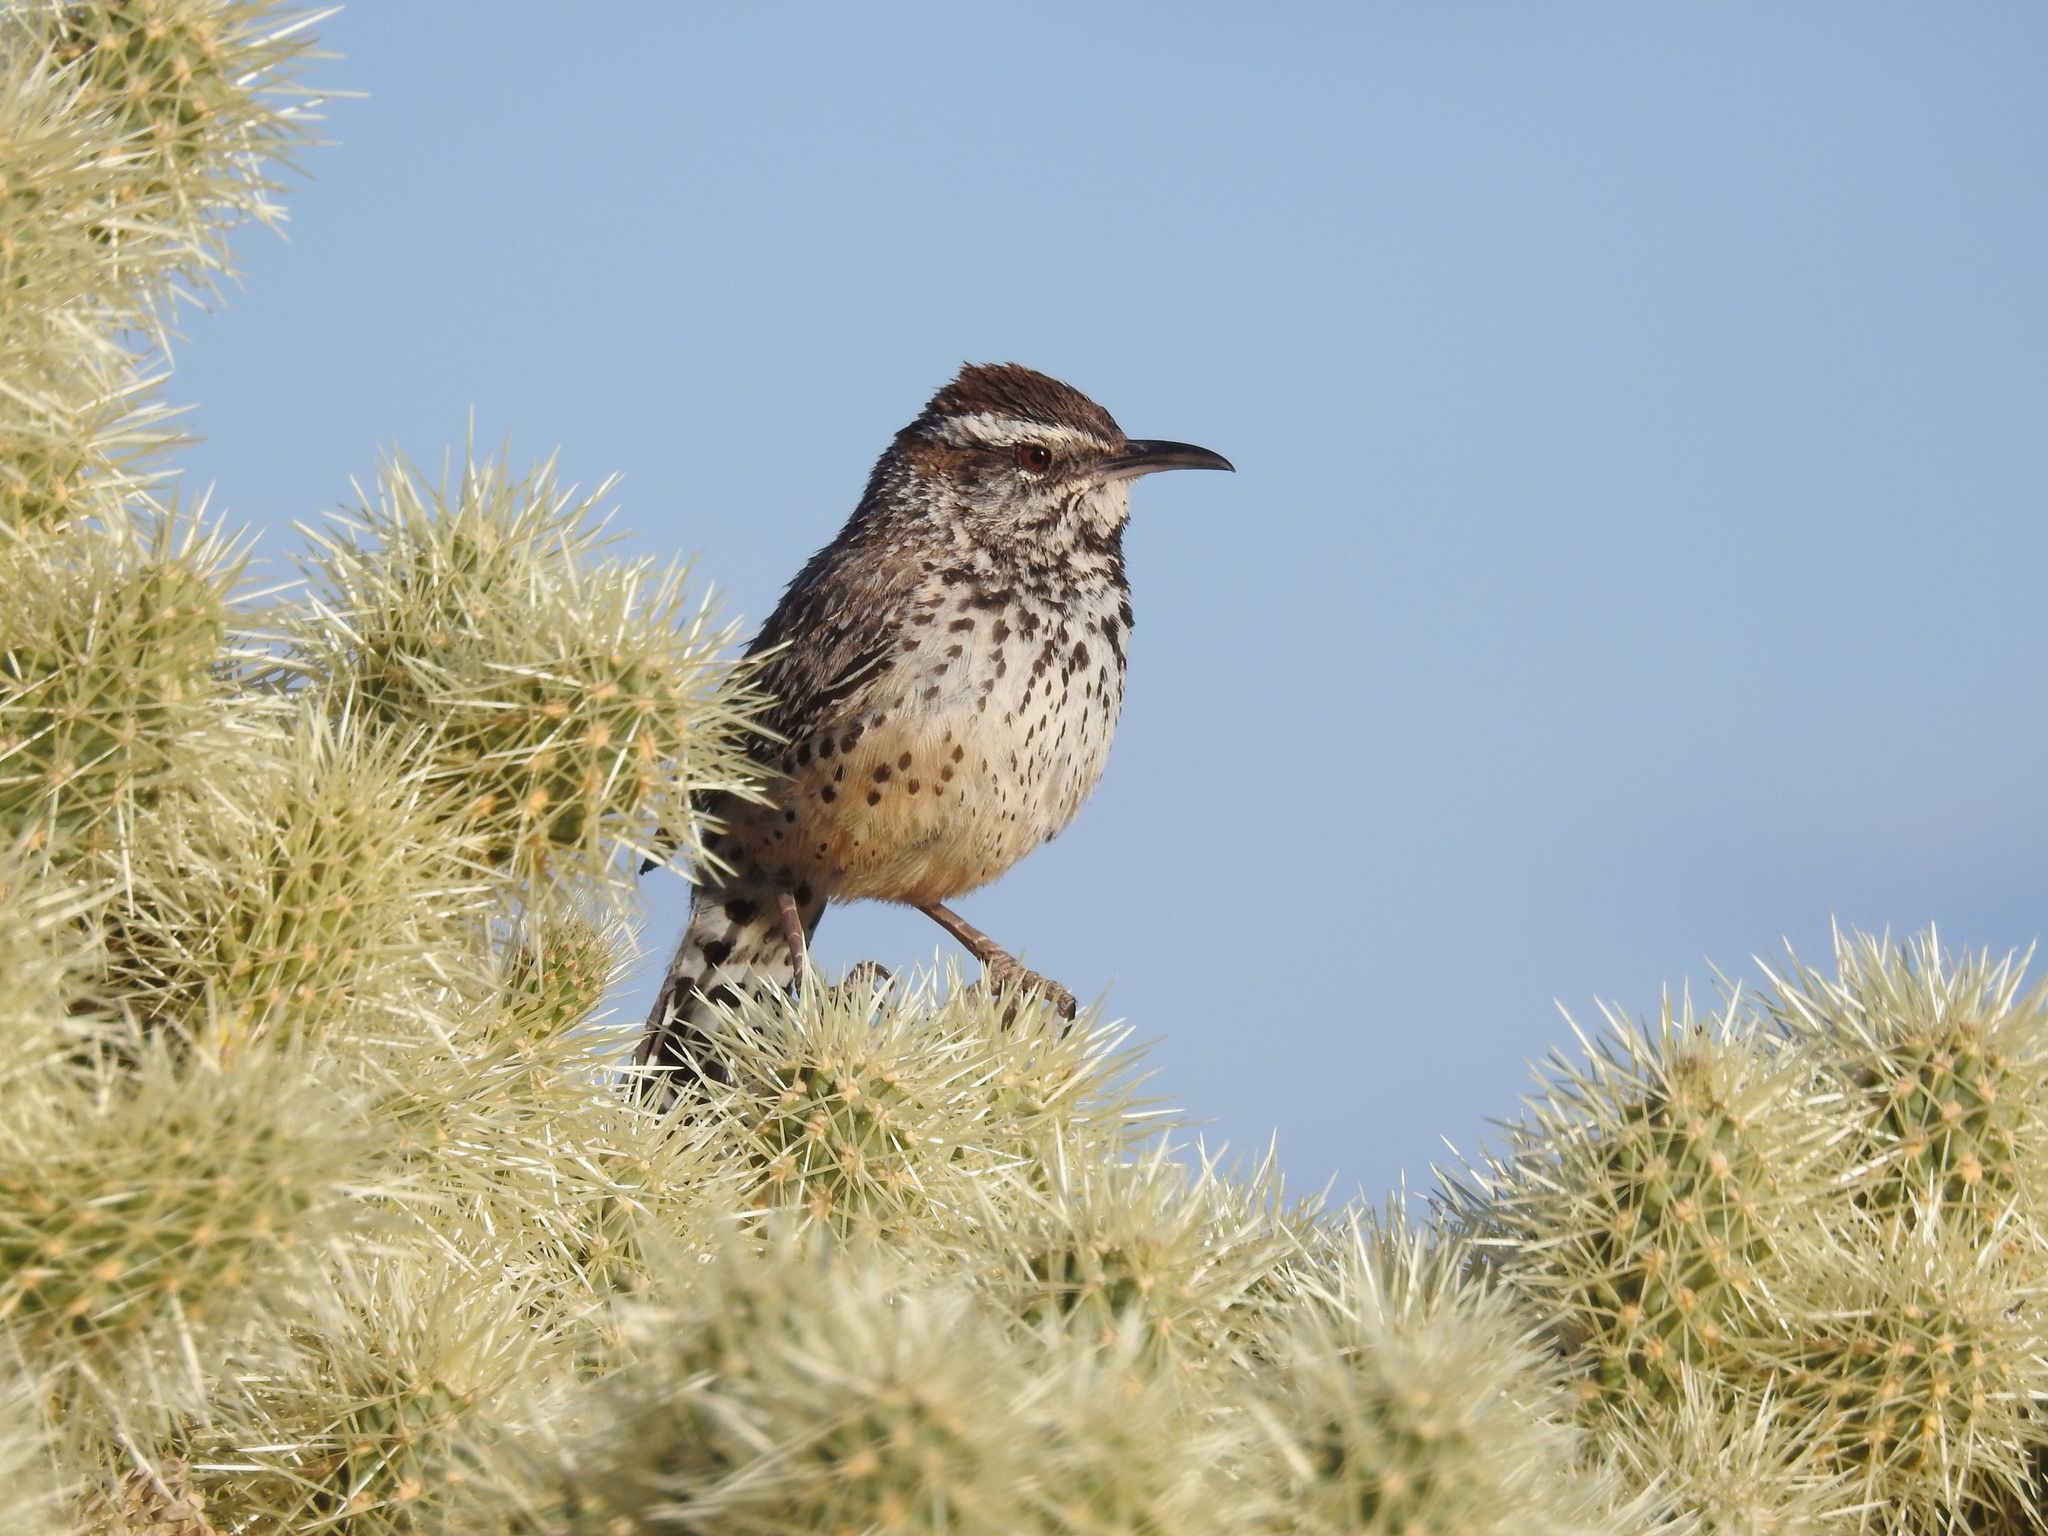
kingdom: Animalia
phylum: Chordata
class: Aves
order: Passeriformes
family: Troglodytidae
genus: Campylorhynchus
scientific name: Campylorhynchus brunneicapillus
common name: Cactus wren
